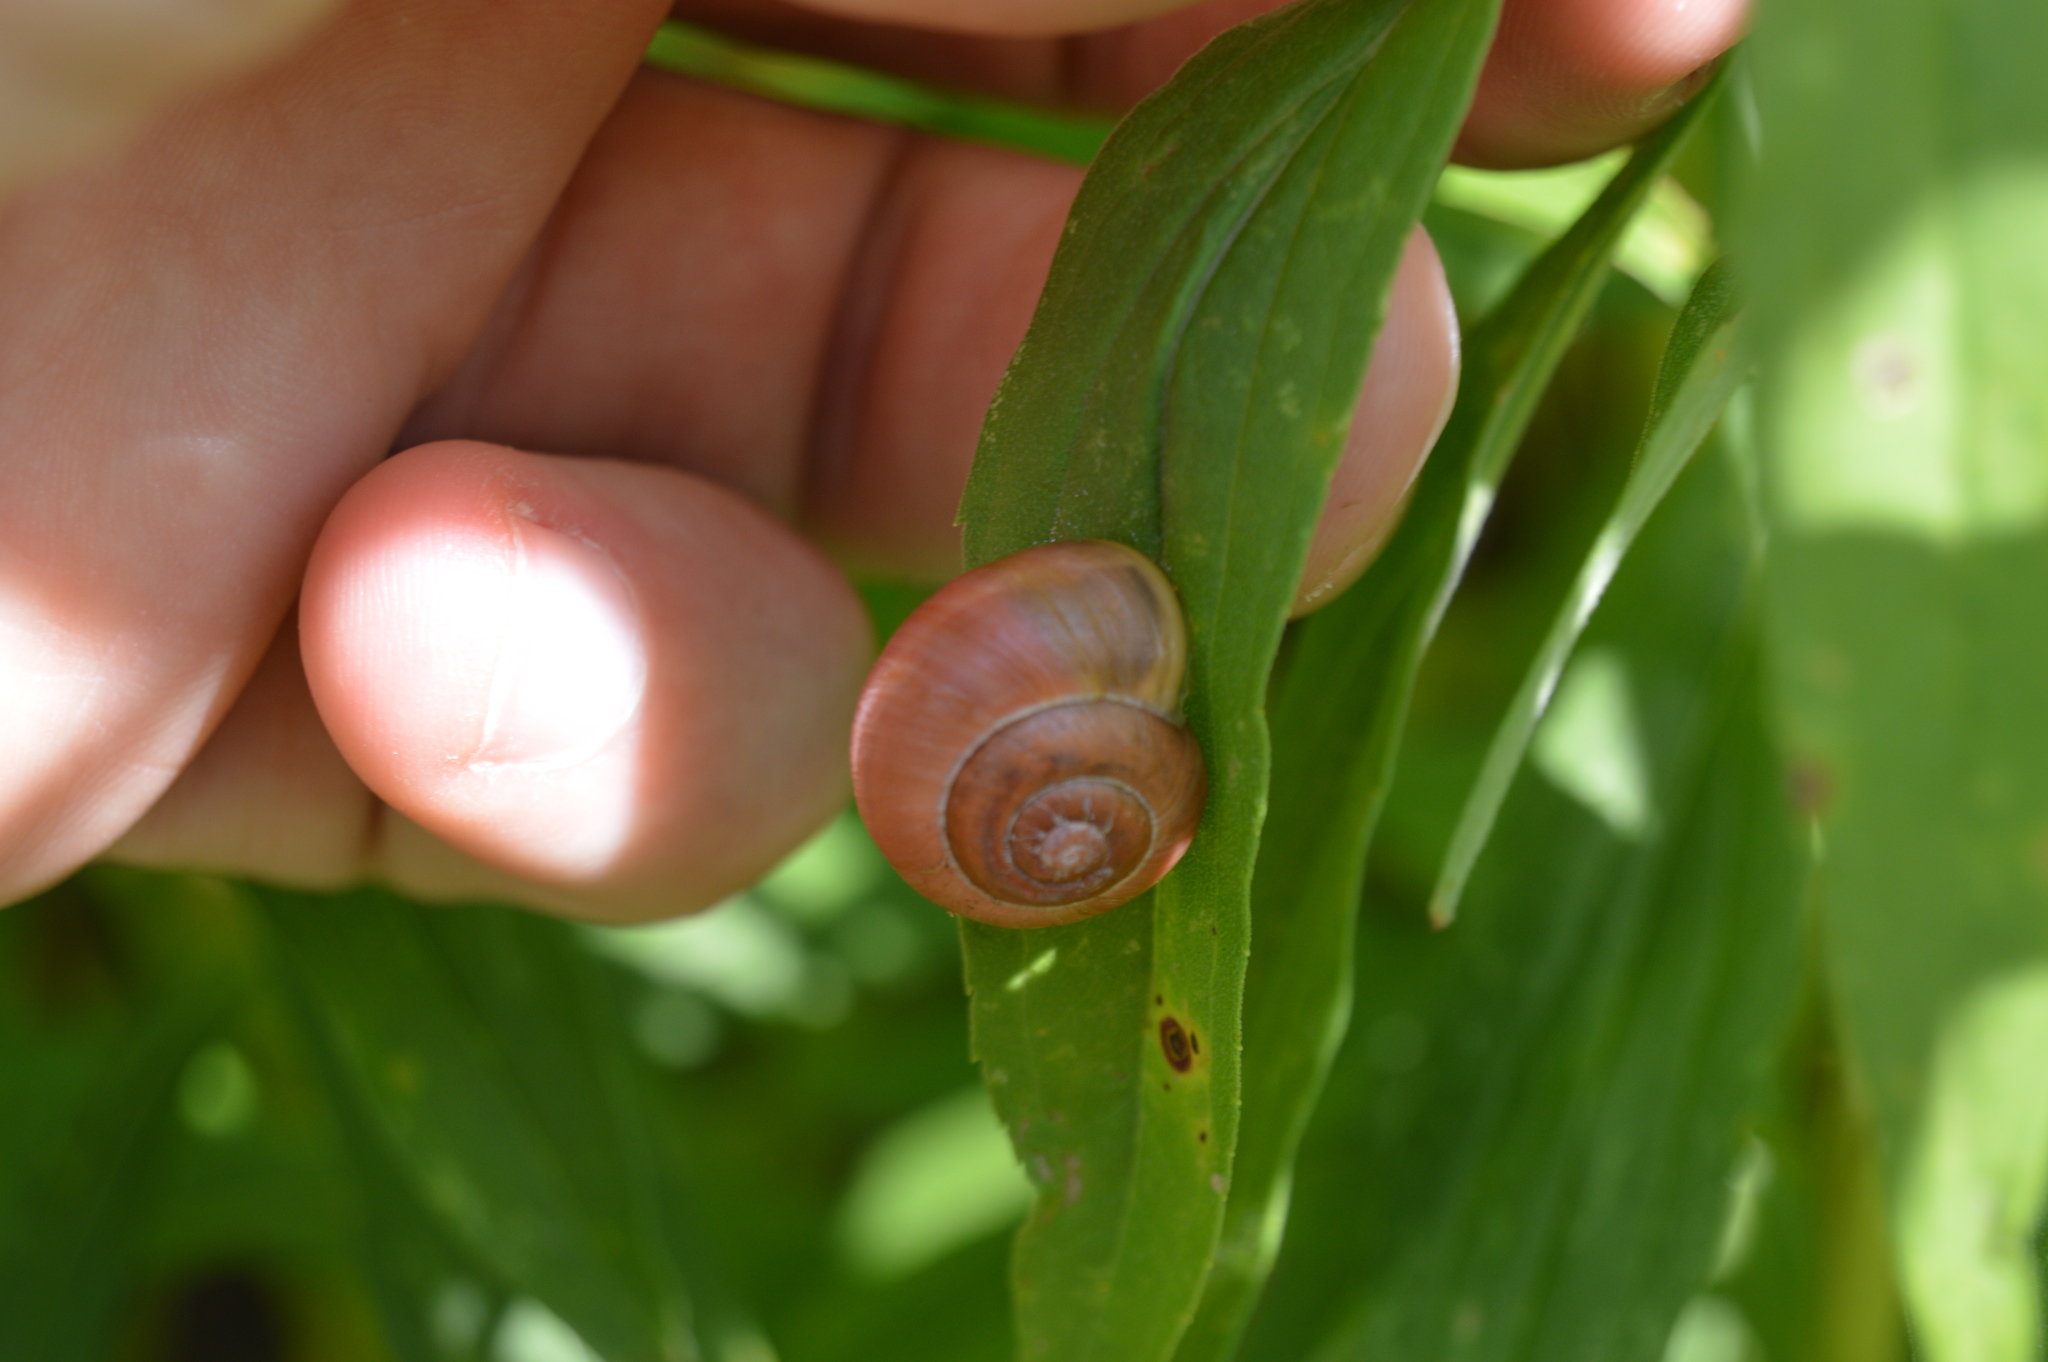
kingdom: Animalia
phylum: Mollusca
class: Gastropoda
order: Stylommatophora
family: Helicidae
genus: Cepaea
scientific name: Cepaea nemoralis
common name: Grovesnail
